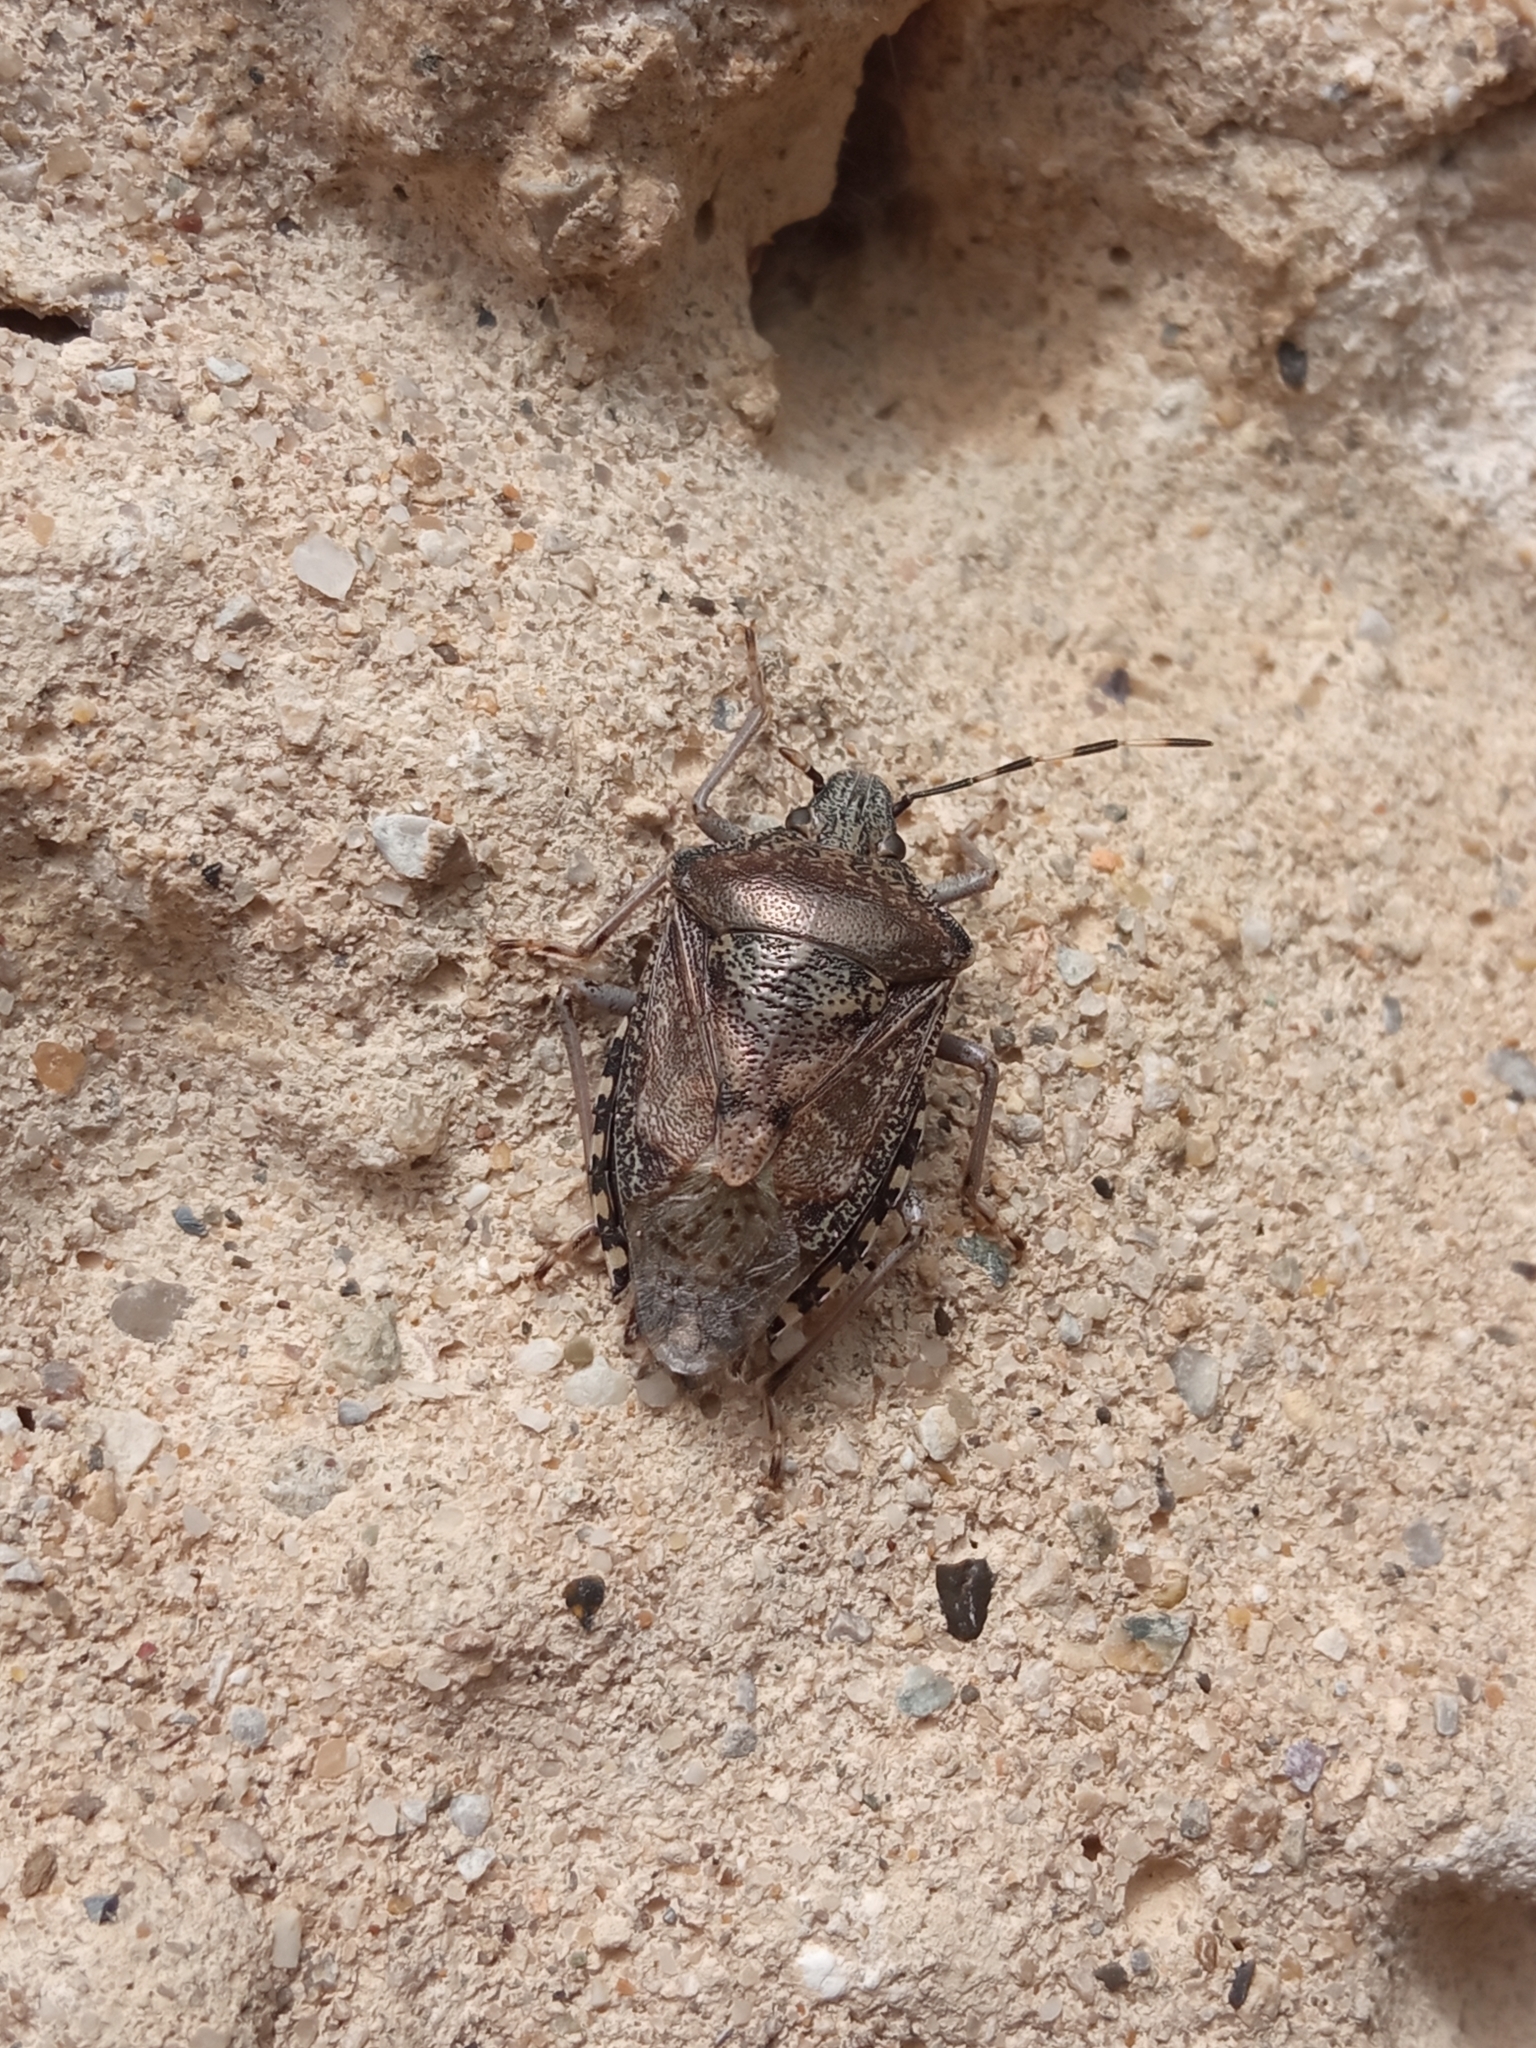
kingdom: Animalia
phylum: Arthropoda
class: Insecta
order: Hemiptera
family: Pentatomidae
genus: Rhaphigaster
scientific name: Rhaphigaster nebulosa
